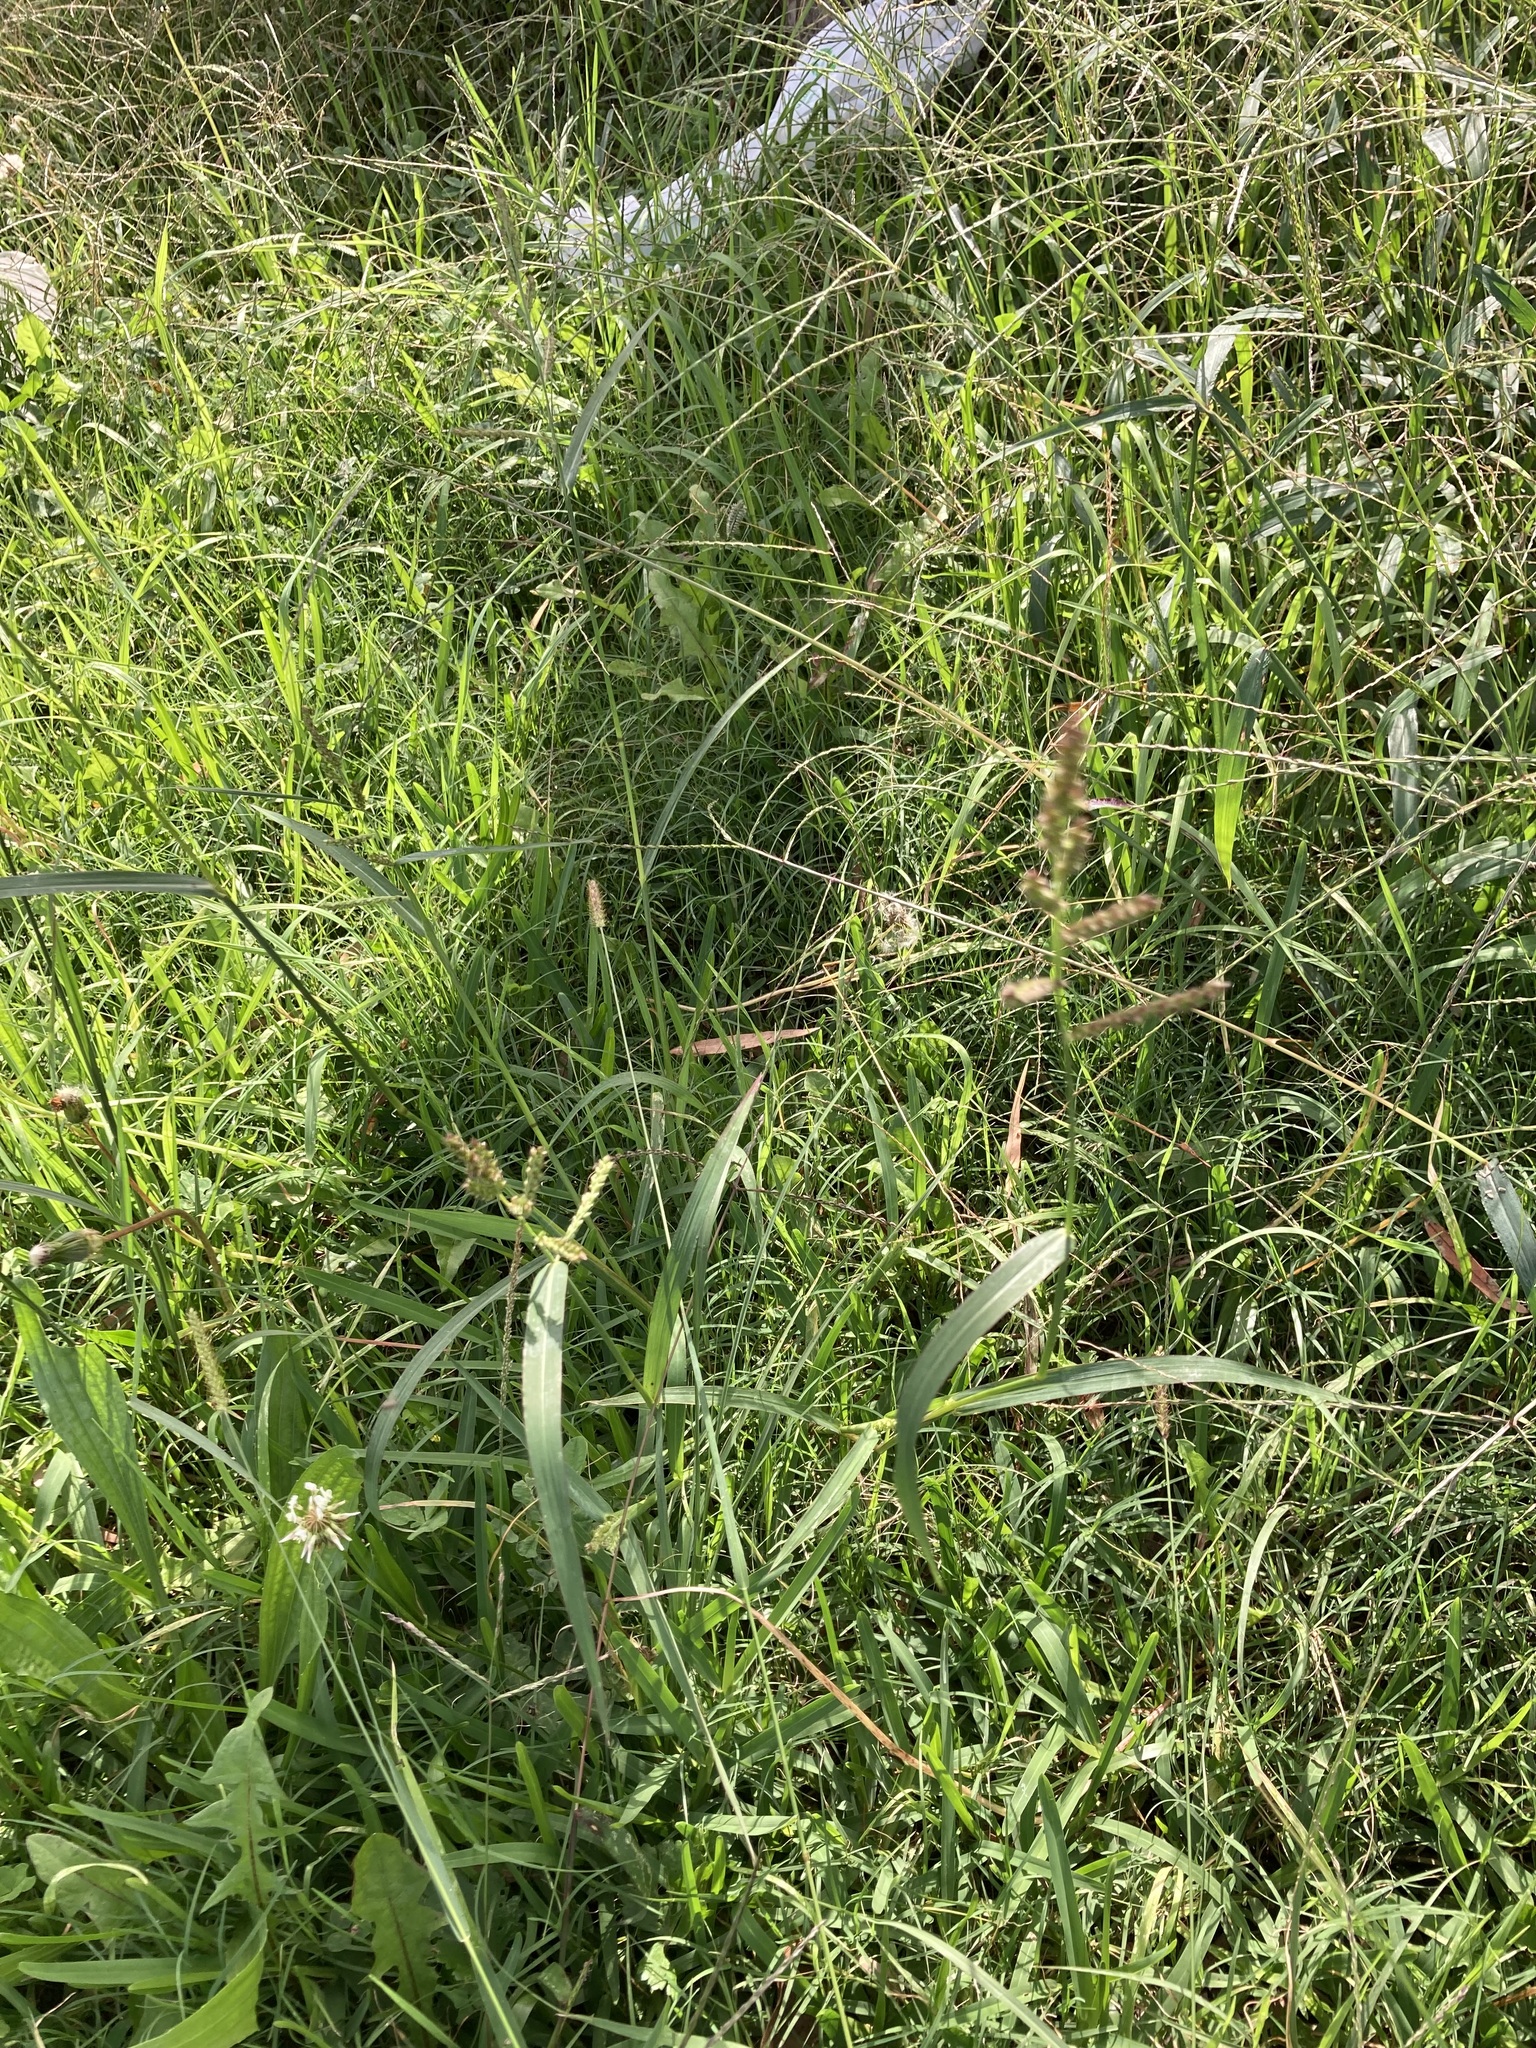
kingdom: Plantae
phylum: Tracheophyta
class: Liliopsida
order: Poales
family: Poaceae
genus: Echinochloa
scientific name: Echinochloa crus-galli
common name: Cockspur
